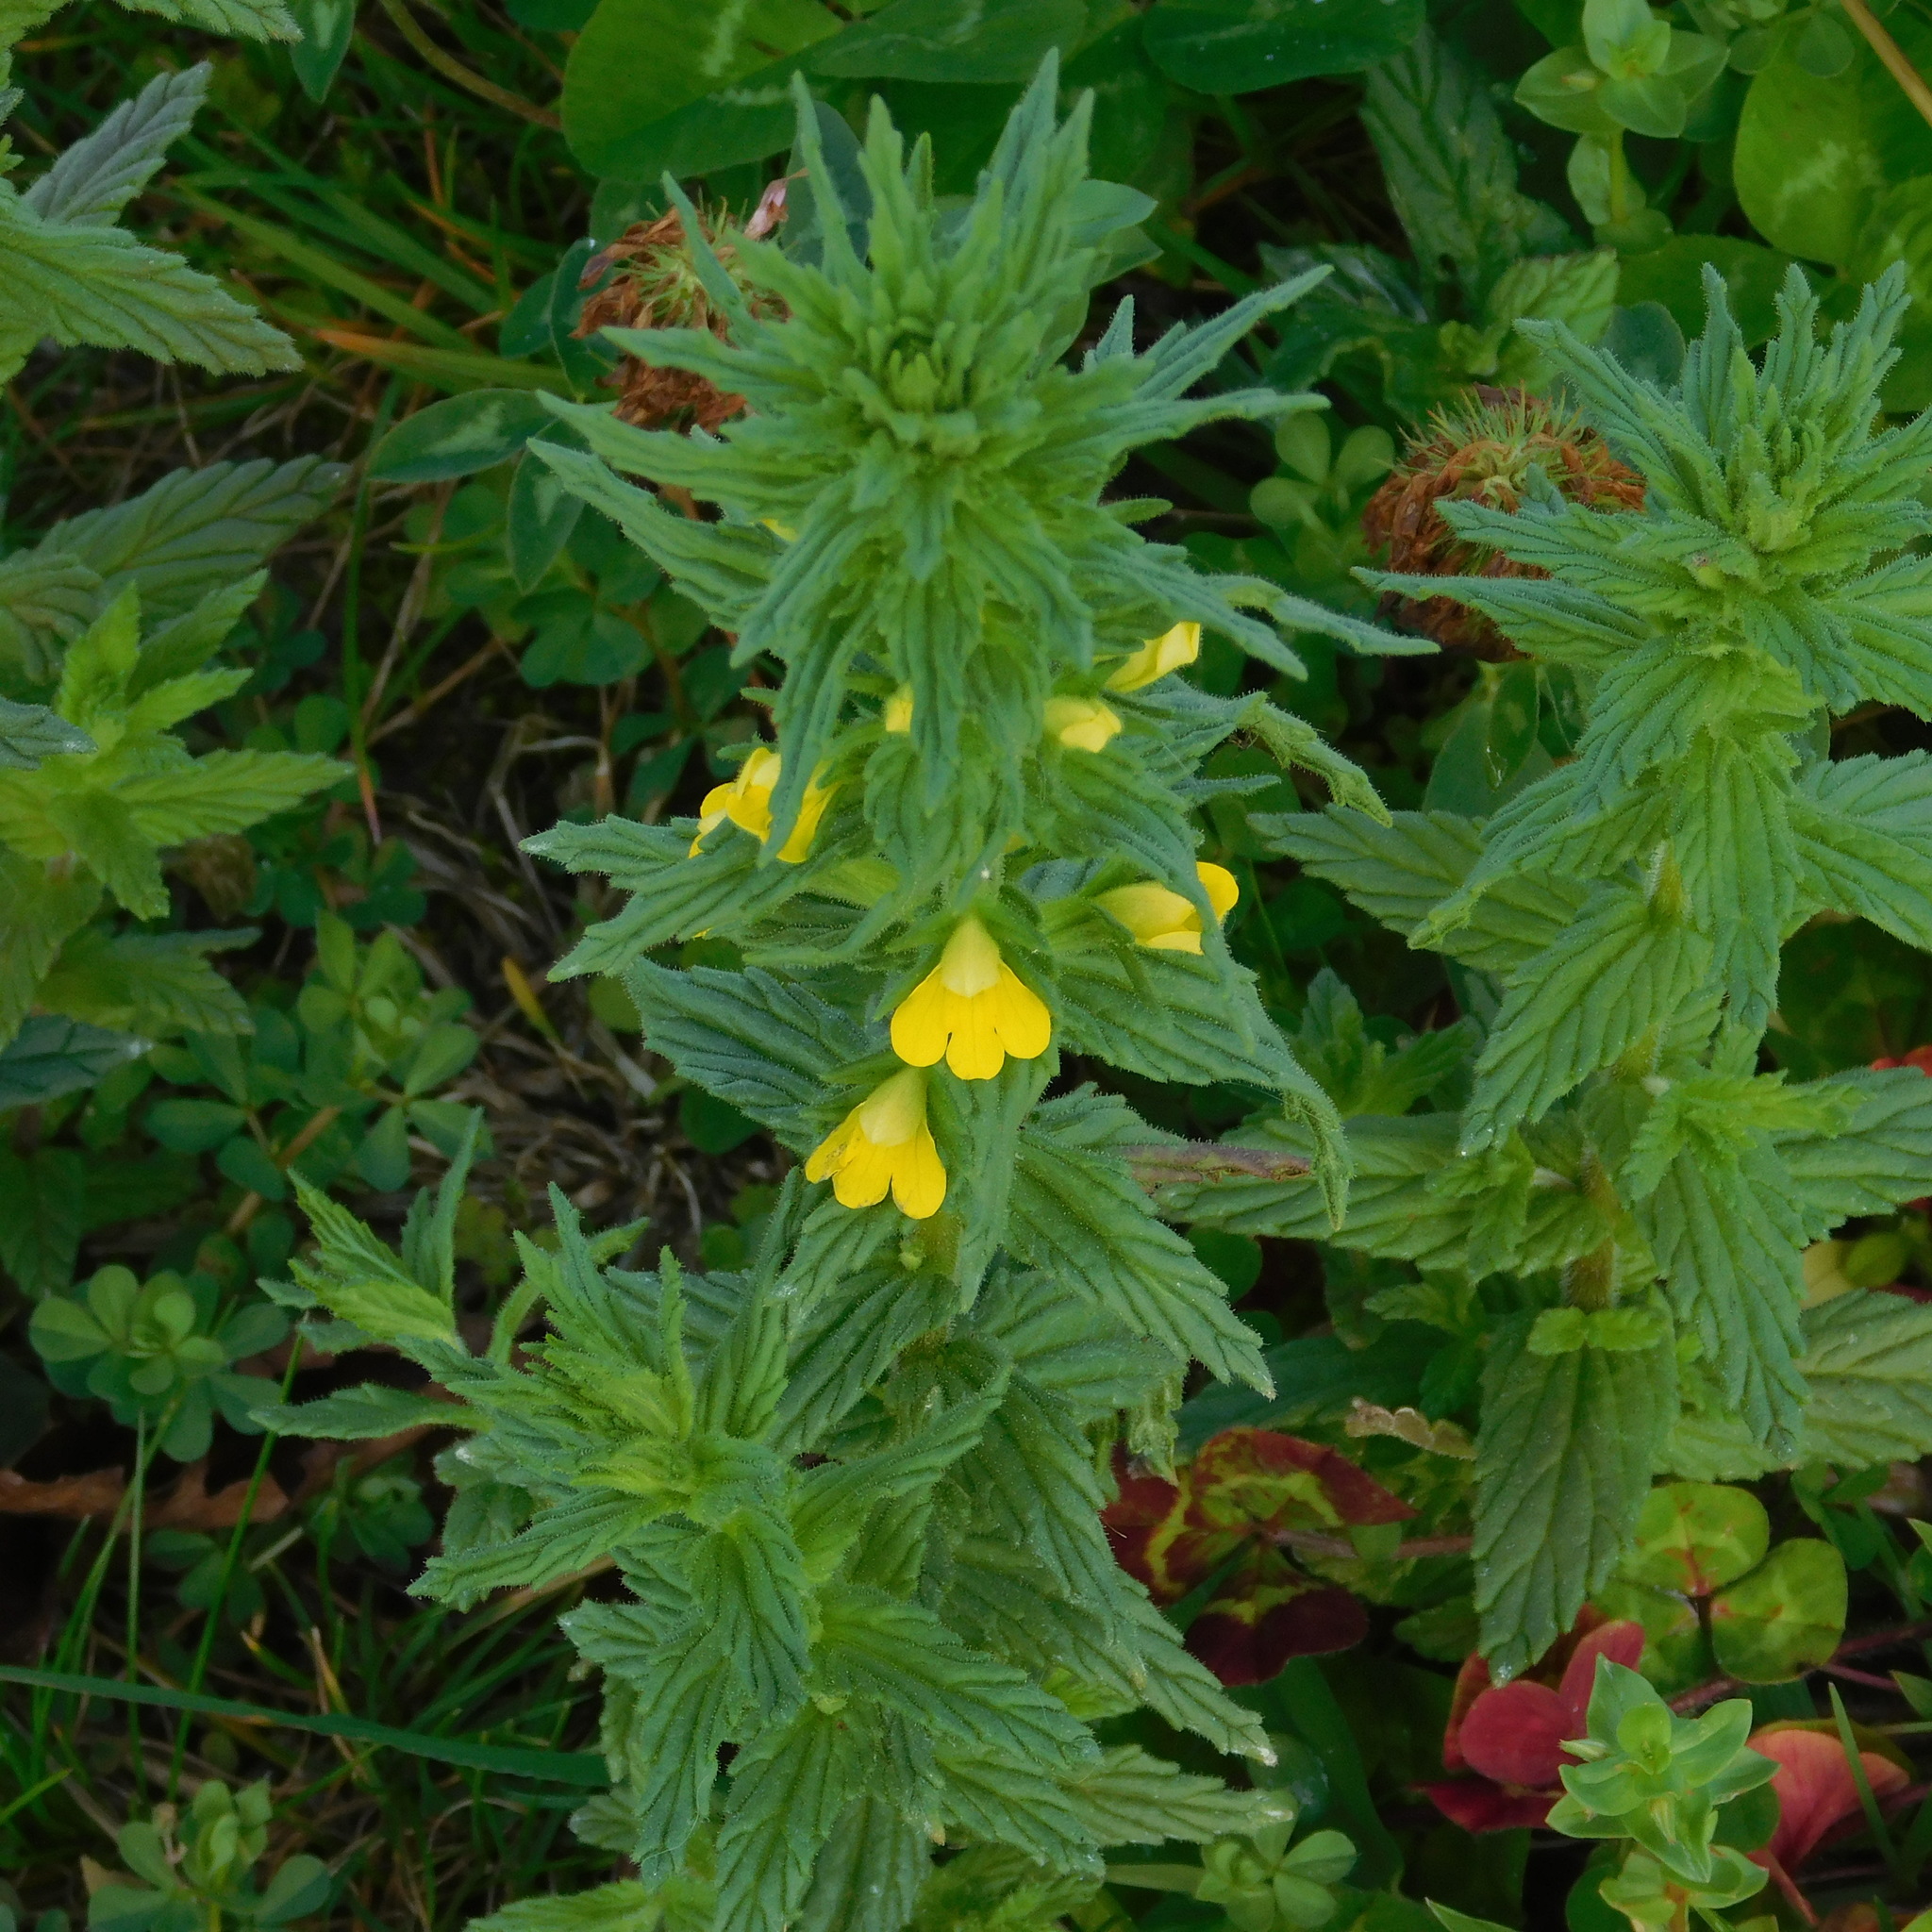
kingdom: Plantae
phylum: Tracheophyta
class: Magnoliopsida
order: Lamiales
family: Orobanchaceae
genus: Bellardia
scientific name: Bellardia viscosa
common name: Sticky parentucellia
